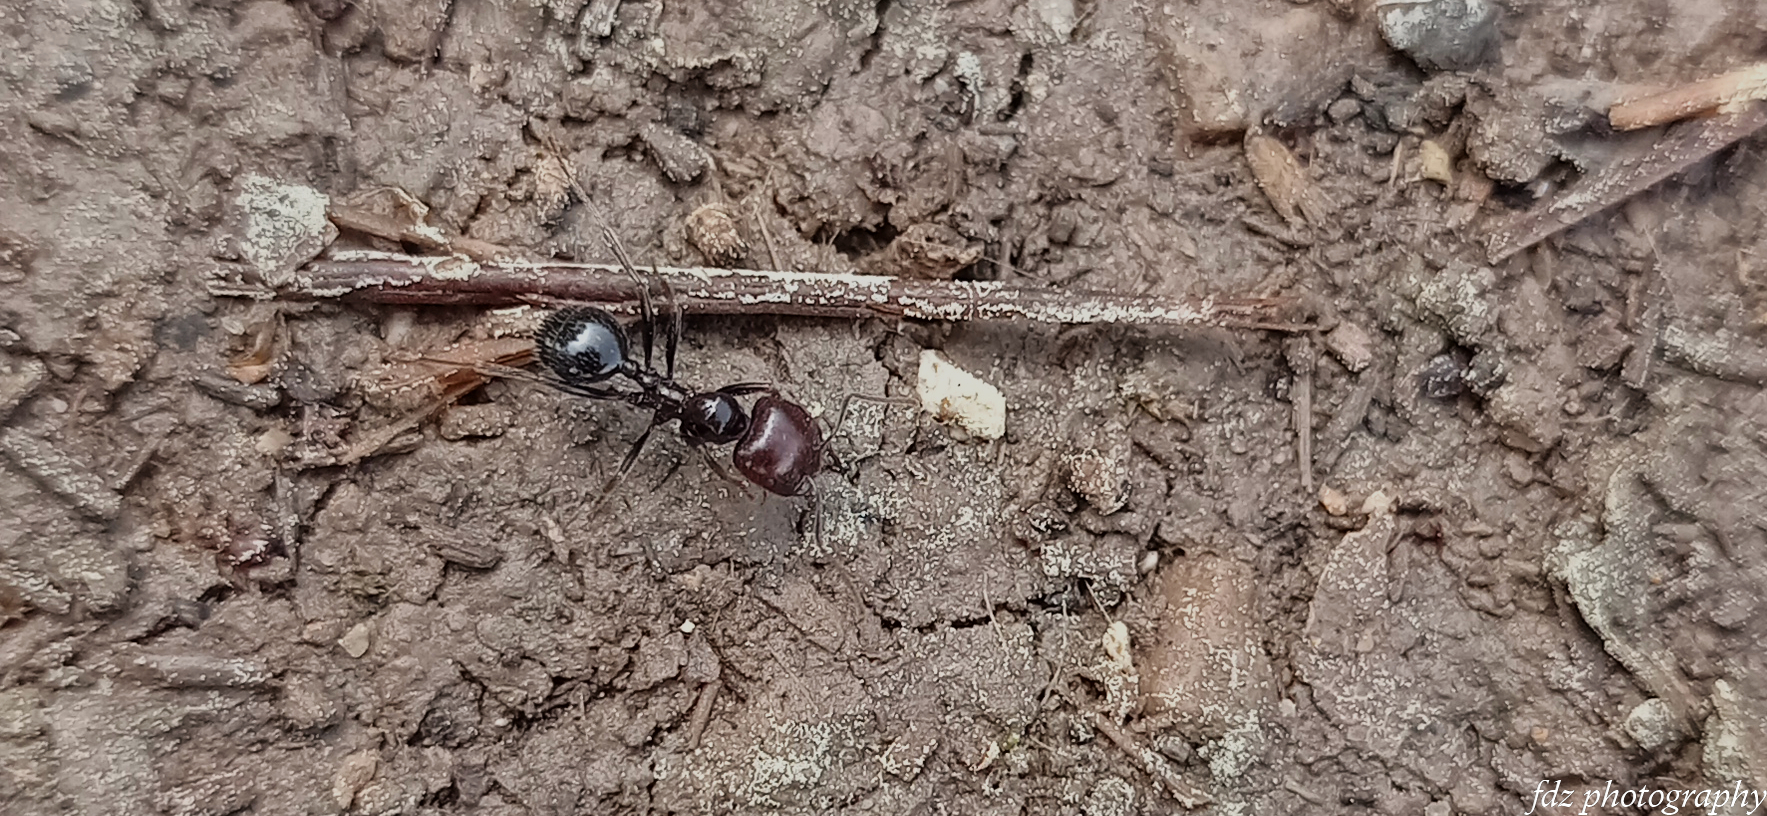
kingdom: Animalia
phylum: Arthropoda
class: Insecta
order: Hymenoptera
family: Formicidae
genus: Messor
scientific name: Messor barbarus
